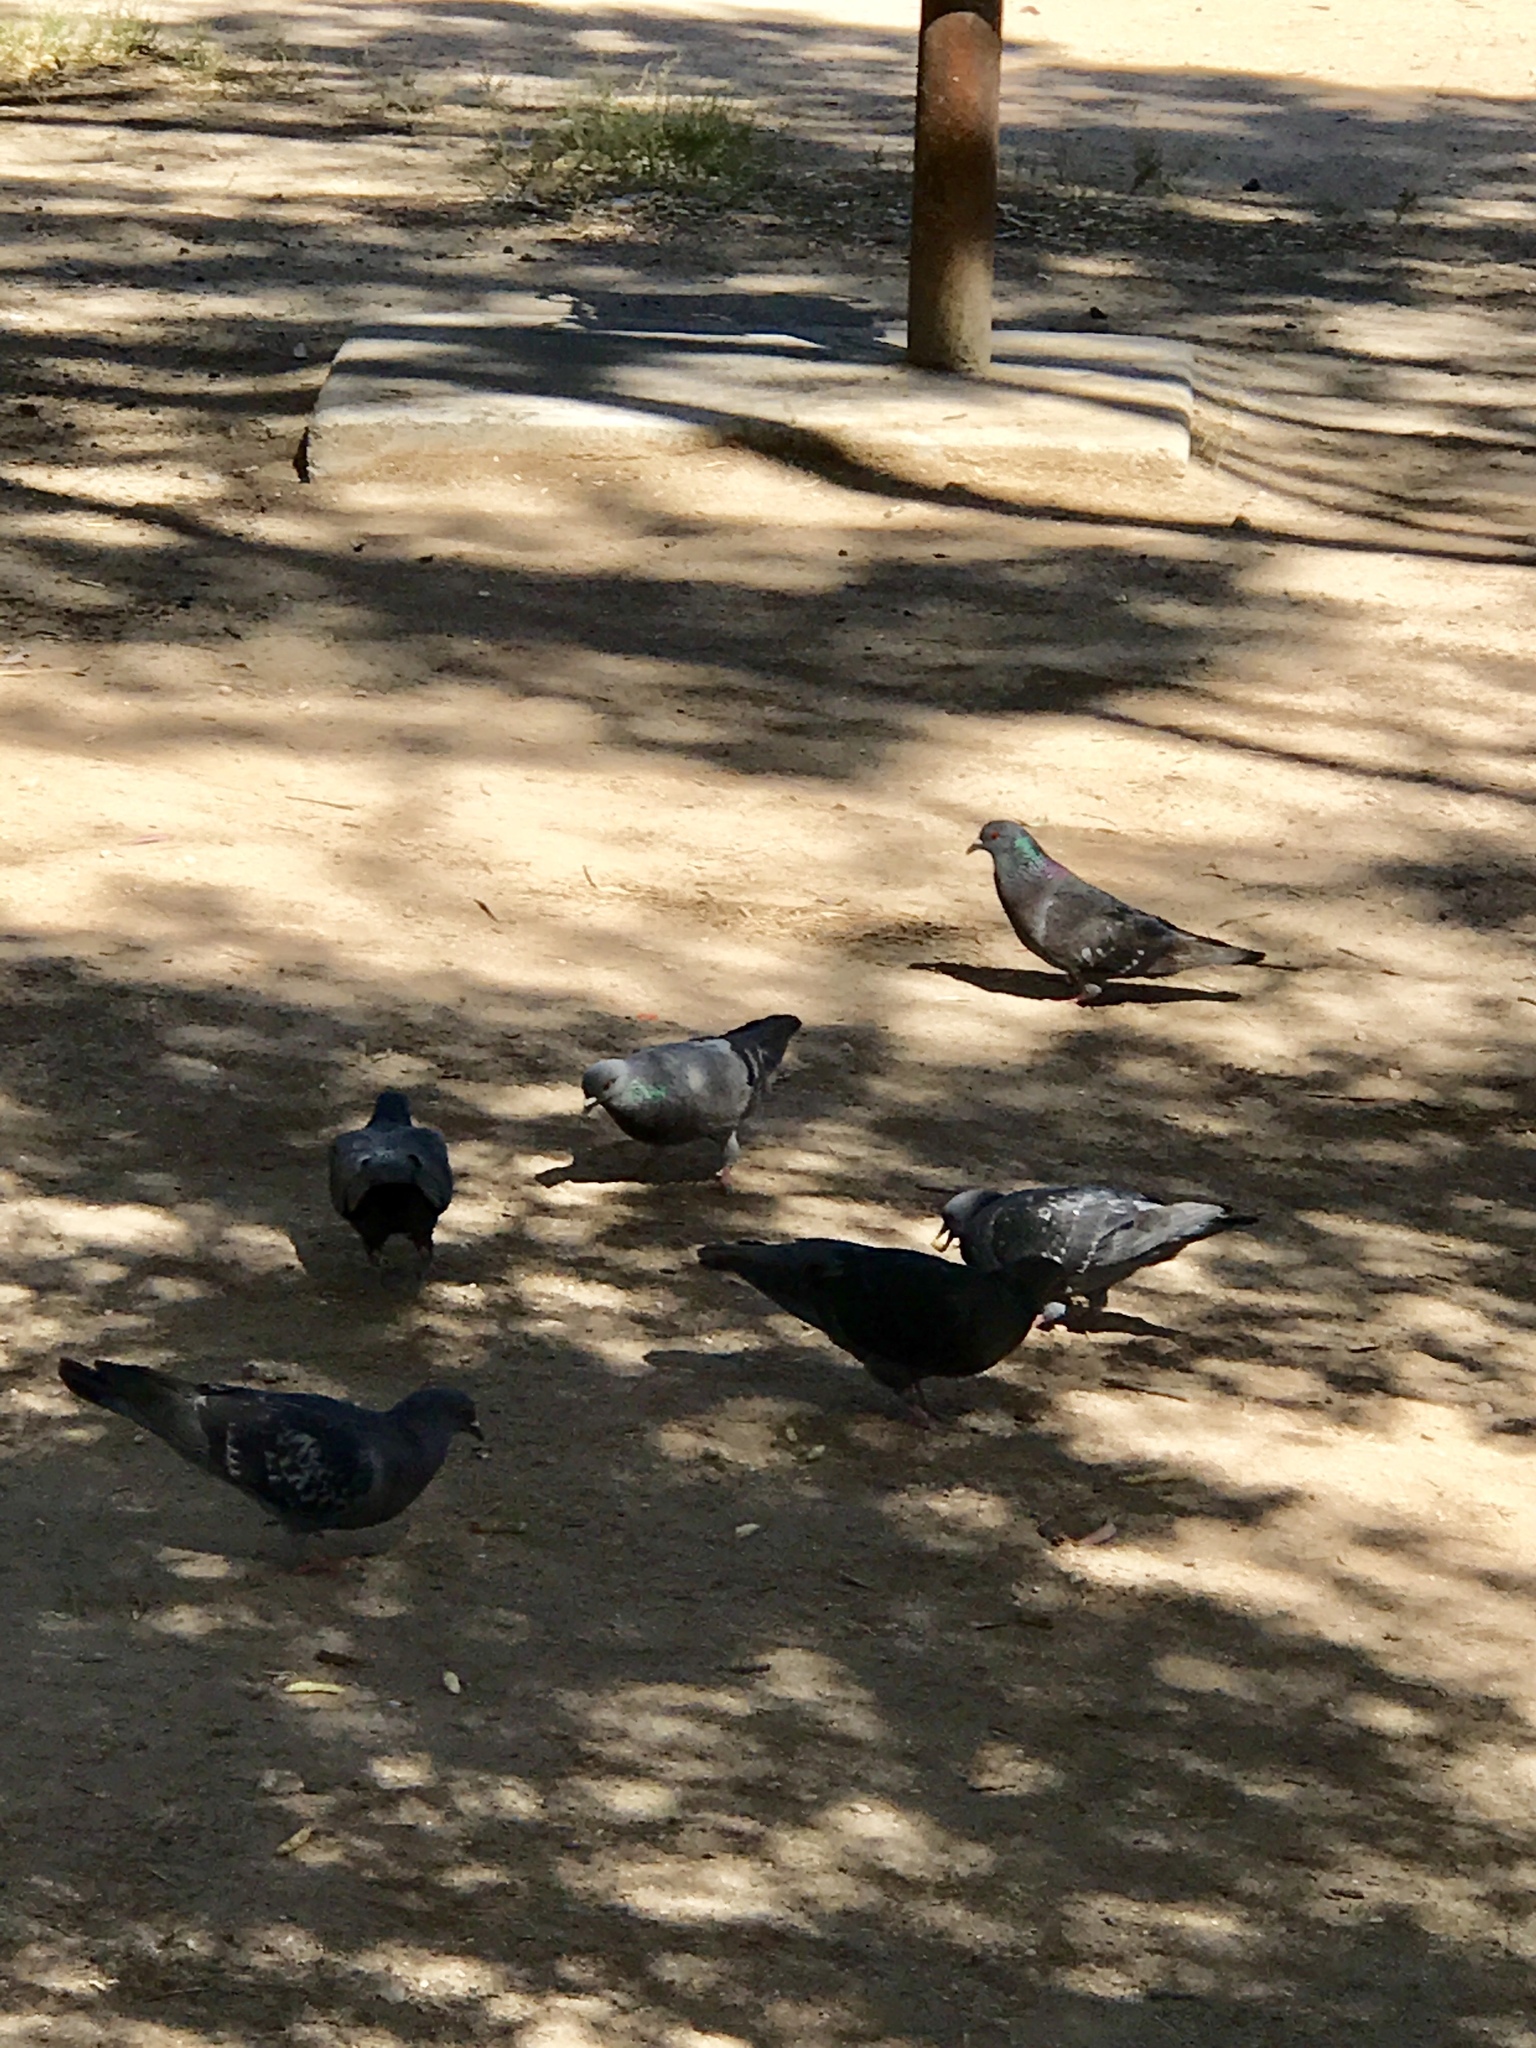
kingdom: Animalia
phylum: Chordata
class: Aves
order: Columbiformes
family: Columbidae
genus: Columba
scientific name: Columba livia
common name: Rock pigeon
